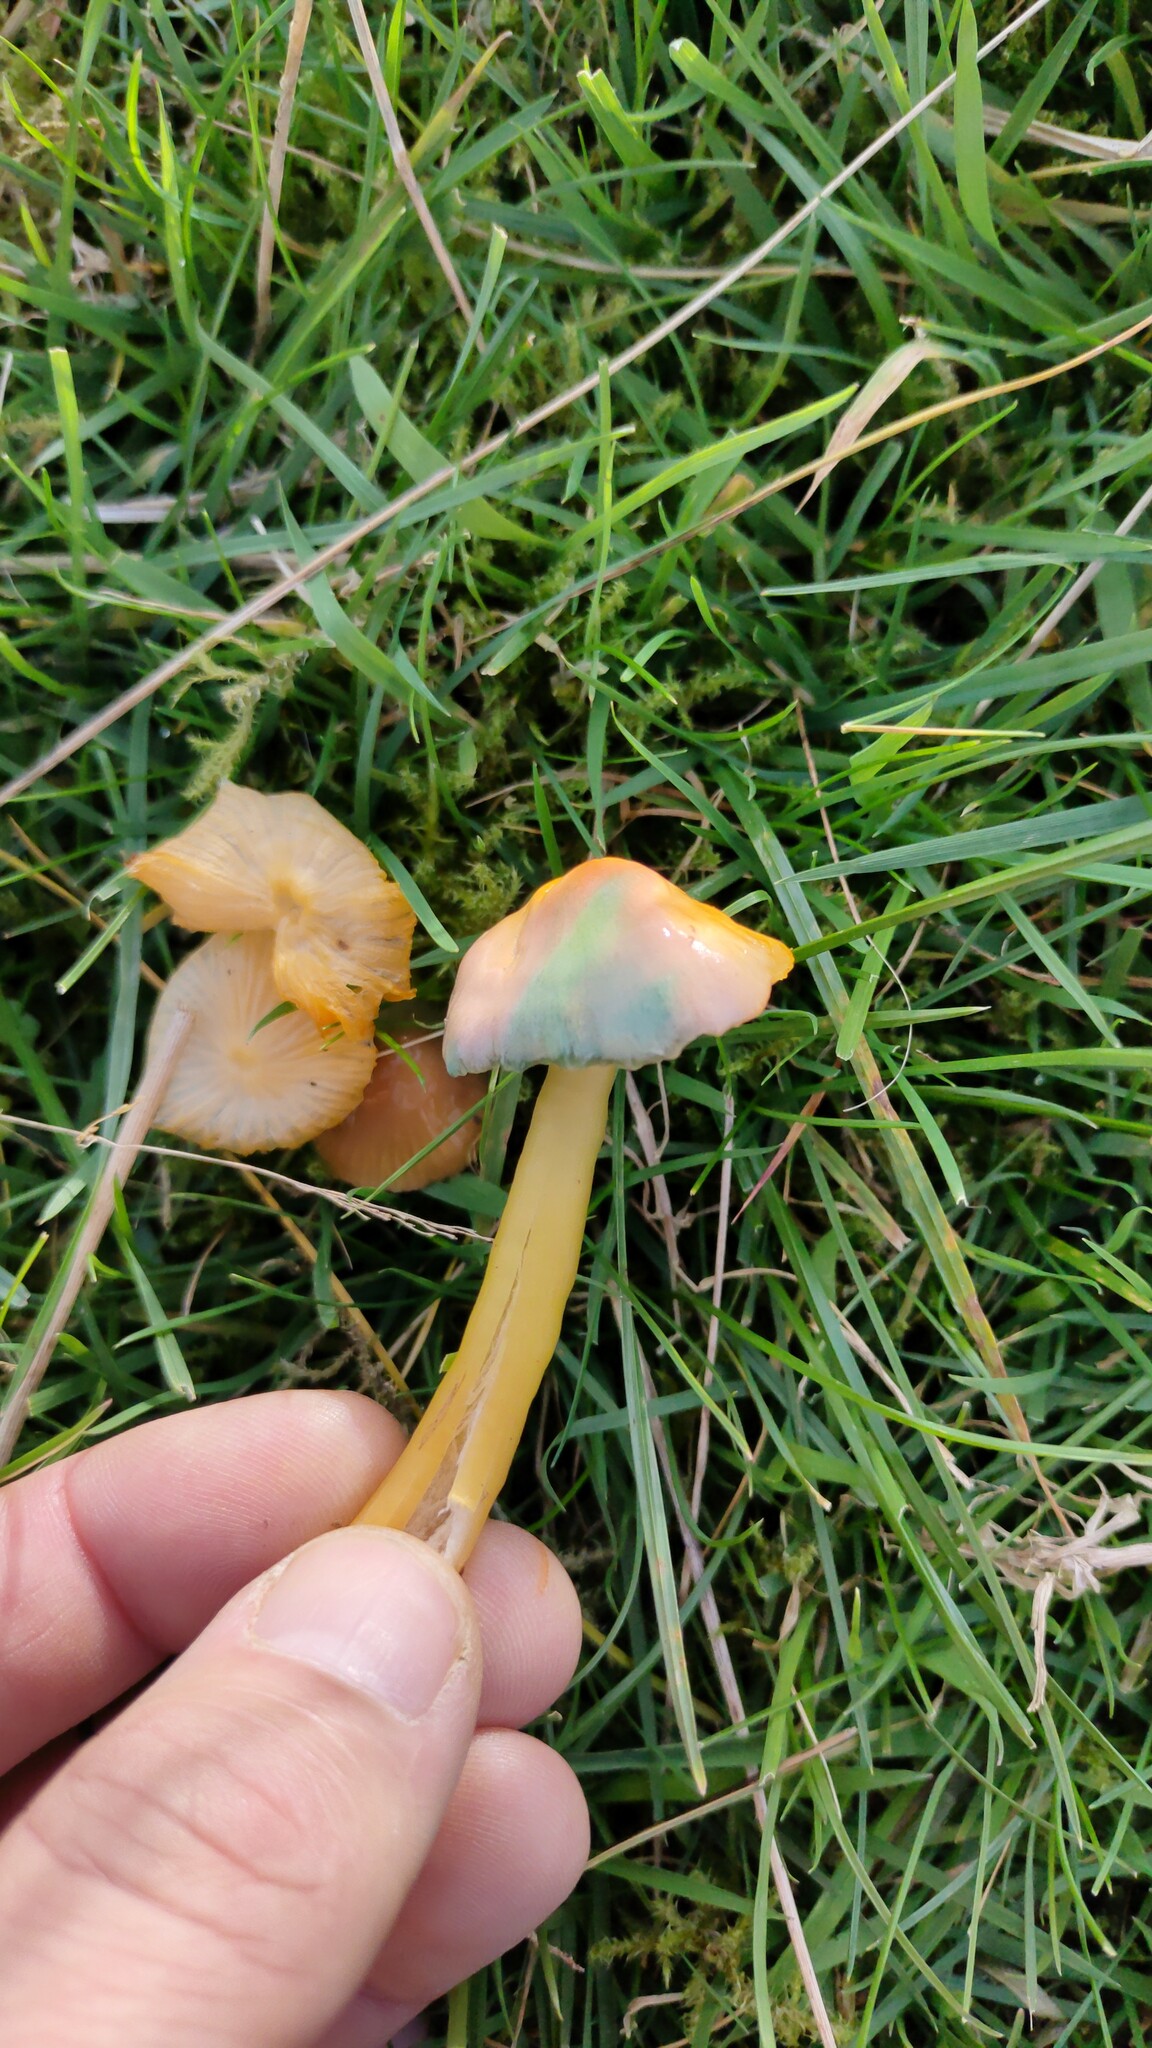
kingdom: Fungi
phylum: Basidiomycota
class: Agaricomycetes
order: Agaricales
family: Hygrophoraceae
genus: Gliophorus
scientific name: Gliophorus psittacinus
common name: Parrot wax-cap
